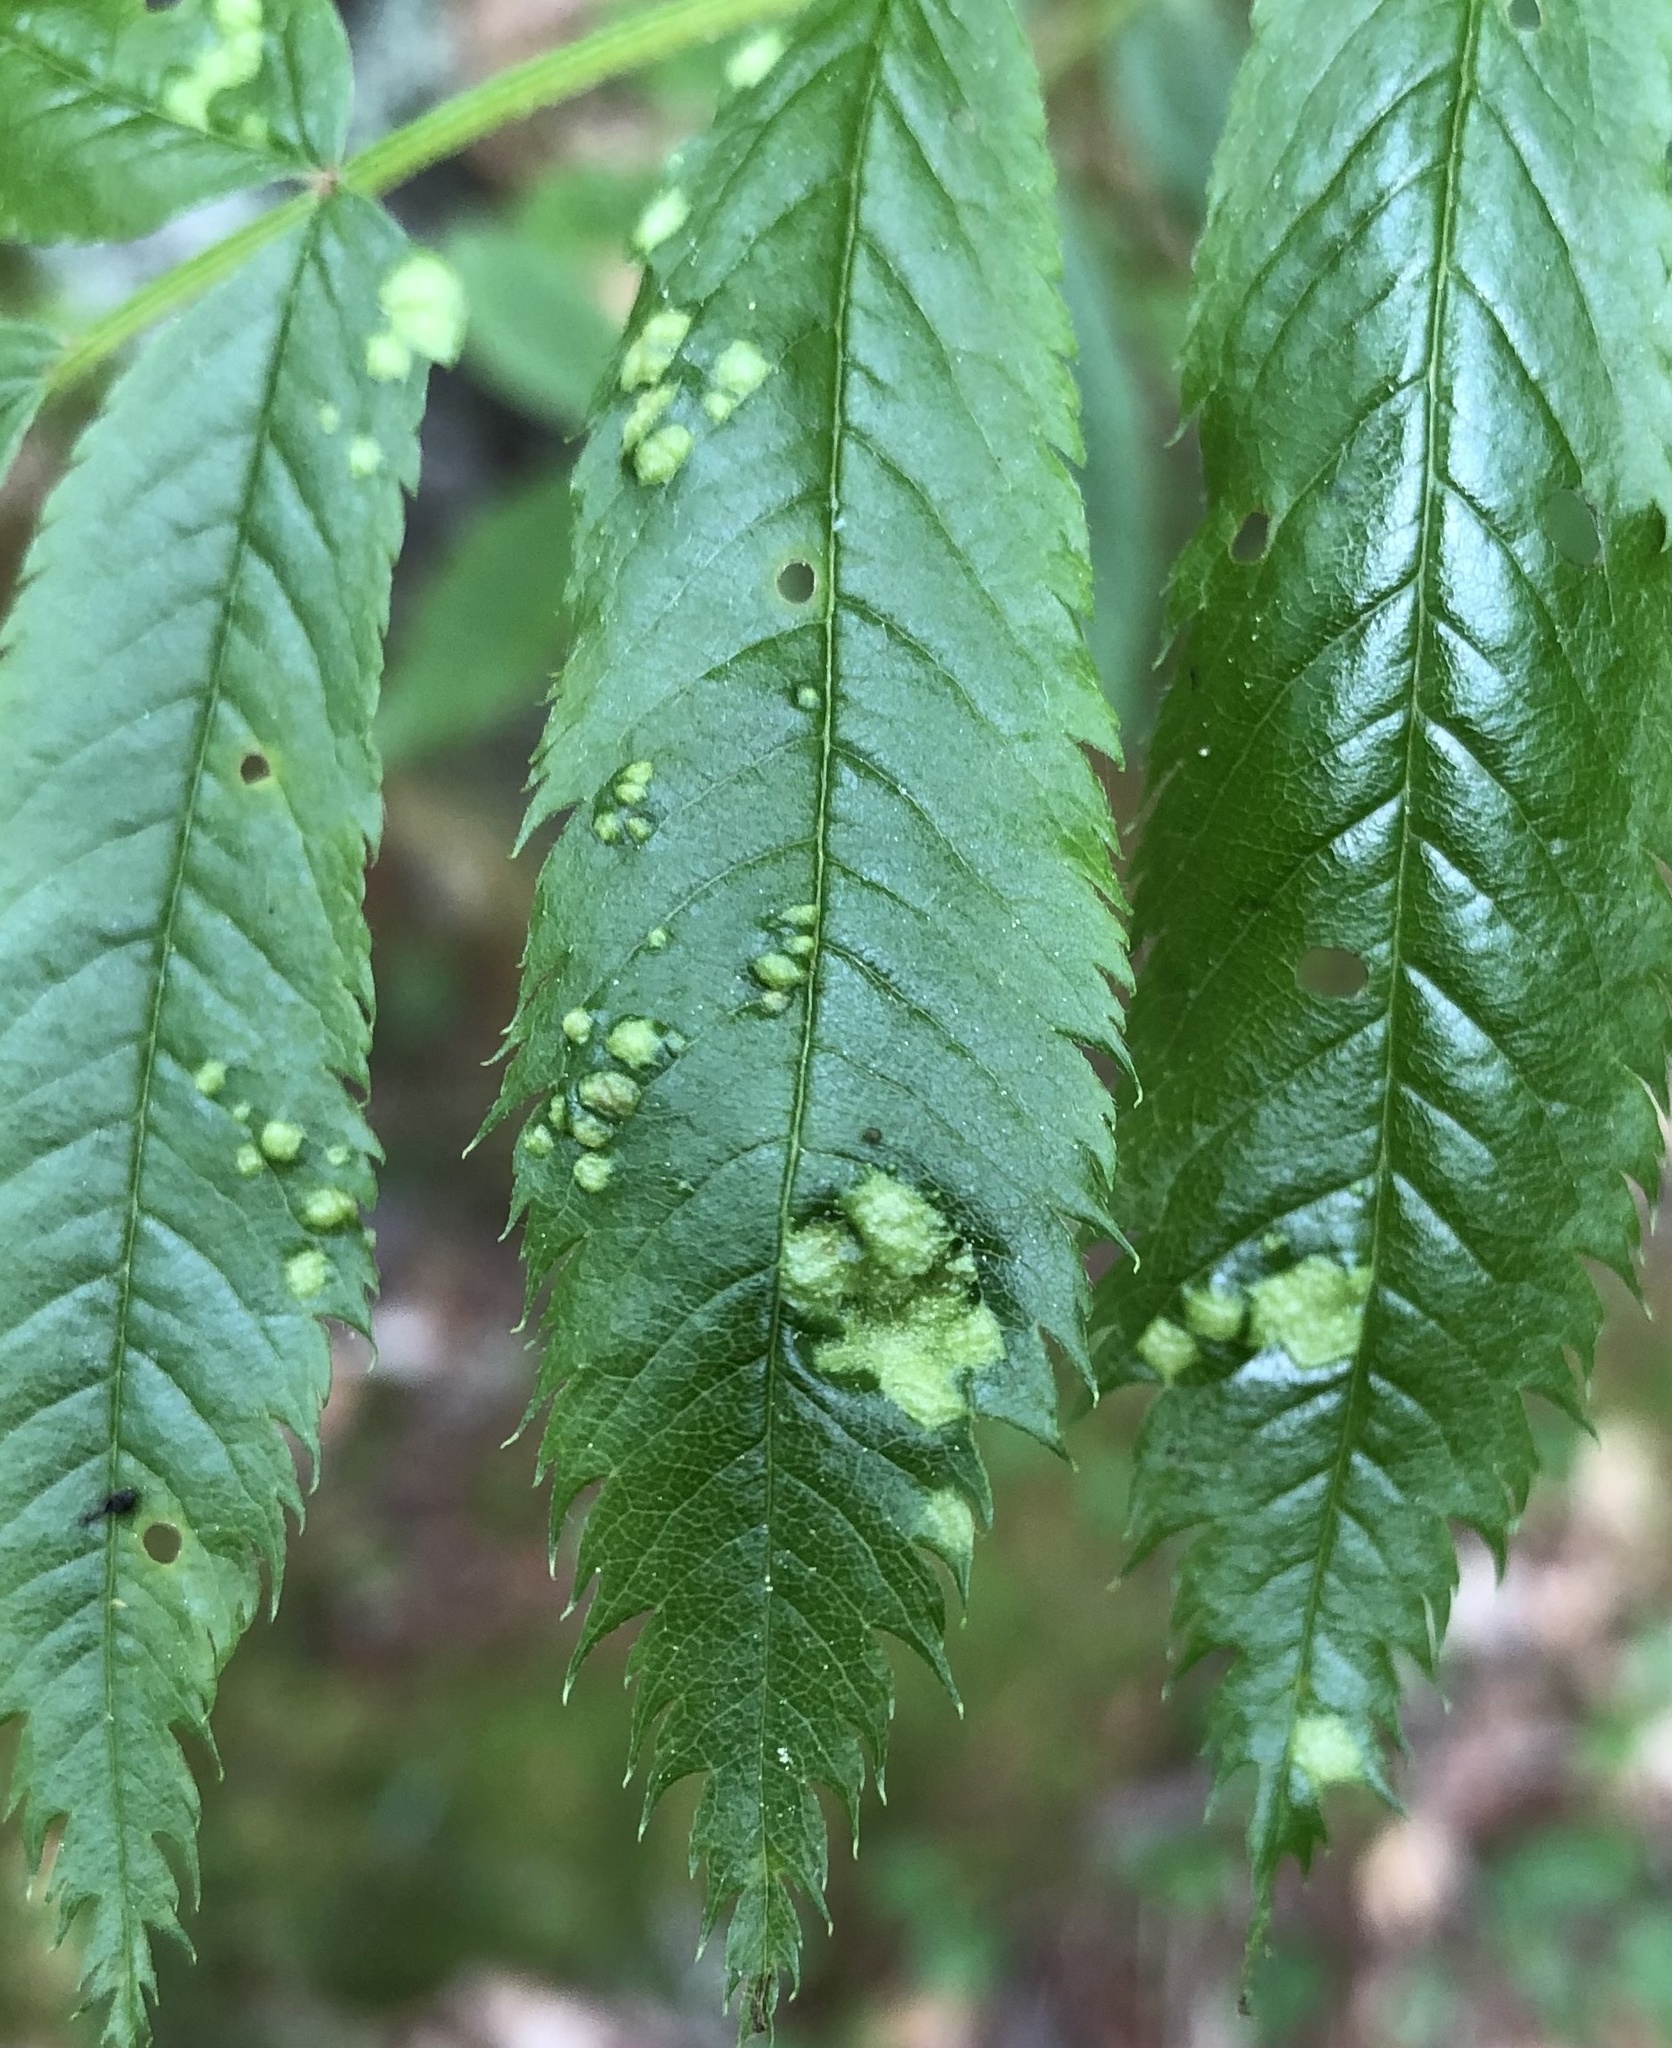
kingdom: Animalia
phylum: Arthropoda
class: Arachnida
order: Trombidiformes
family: Eriophyidae
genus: Eriophyes
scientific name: Eriophyes pyri
